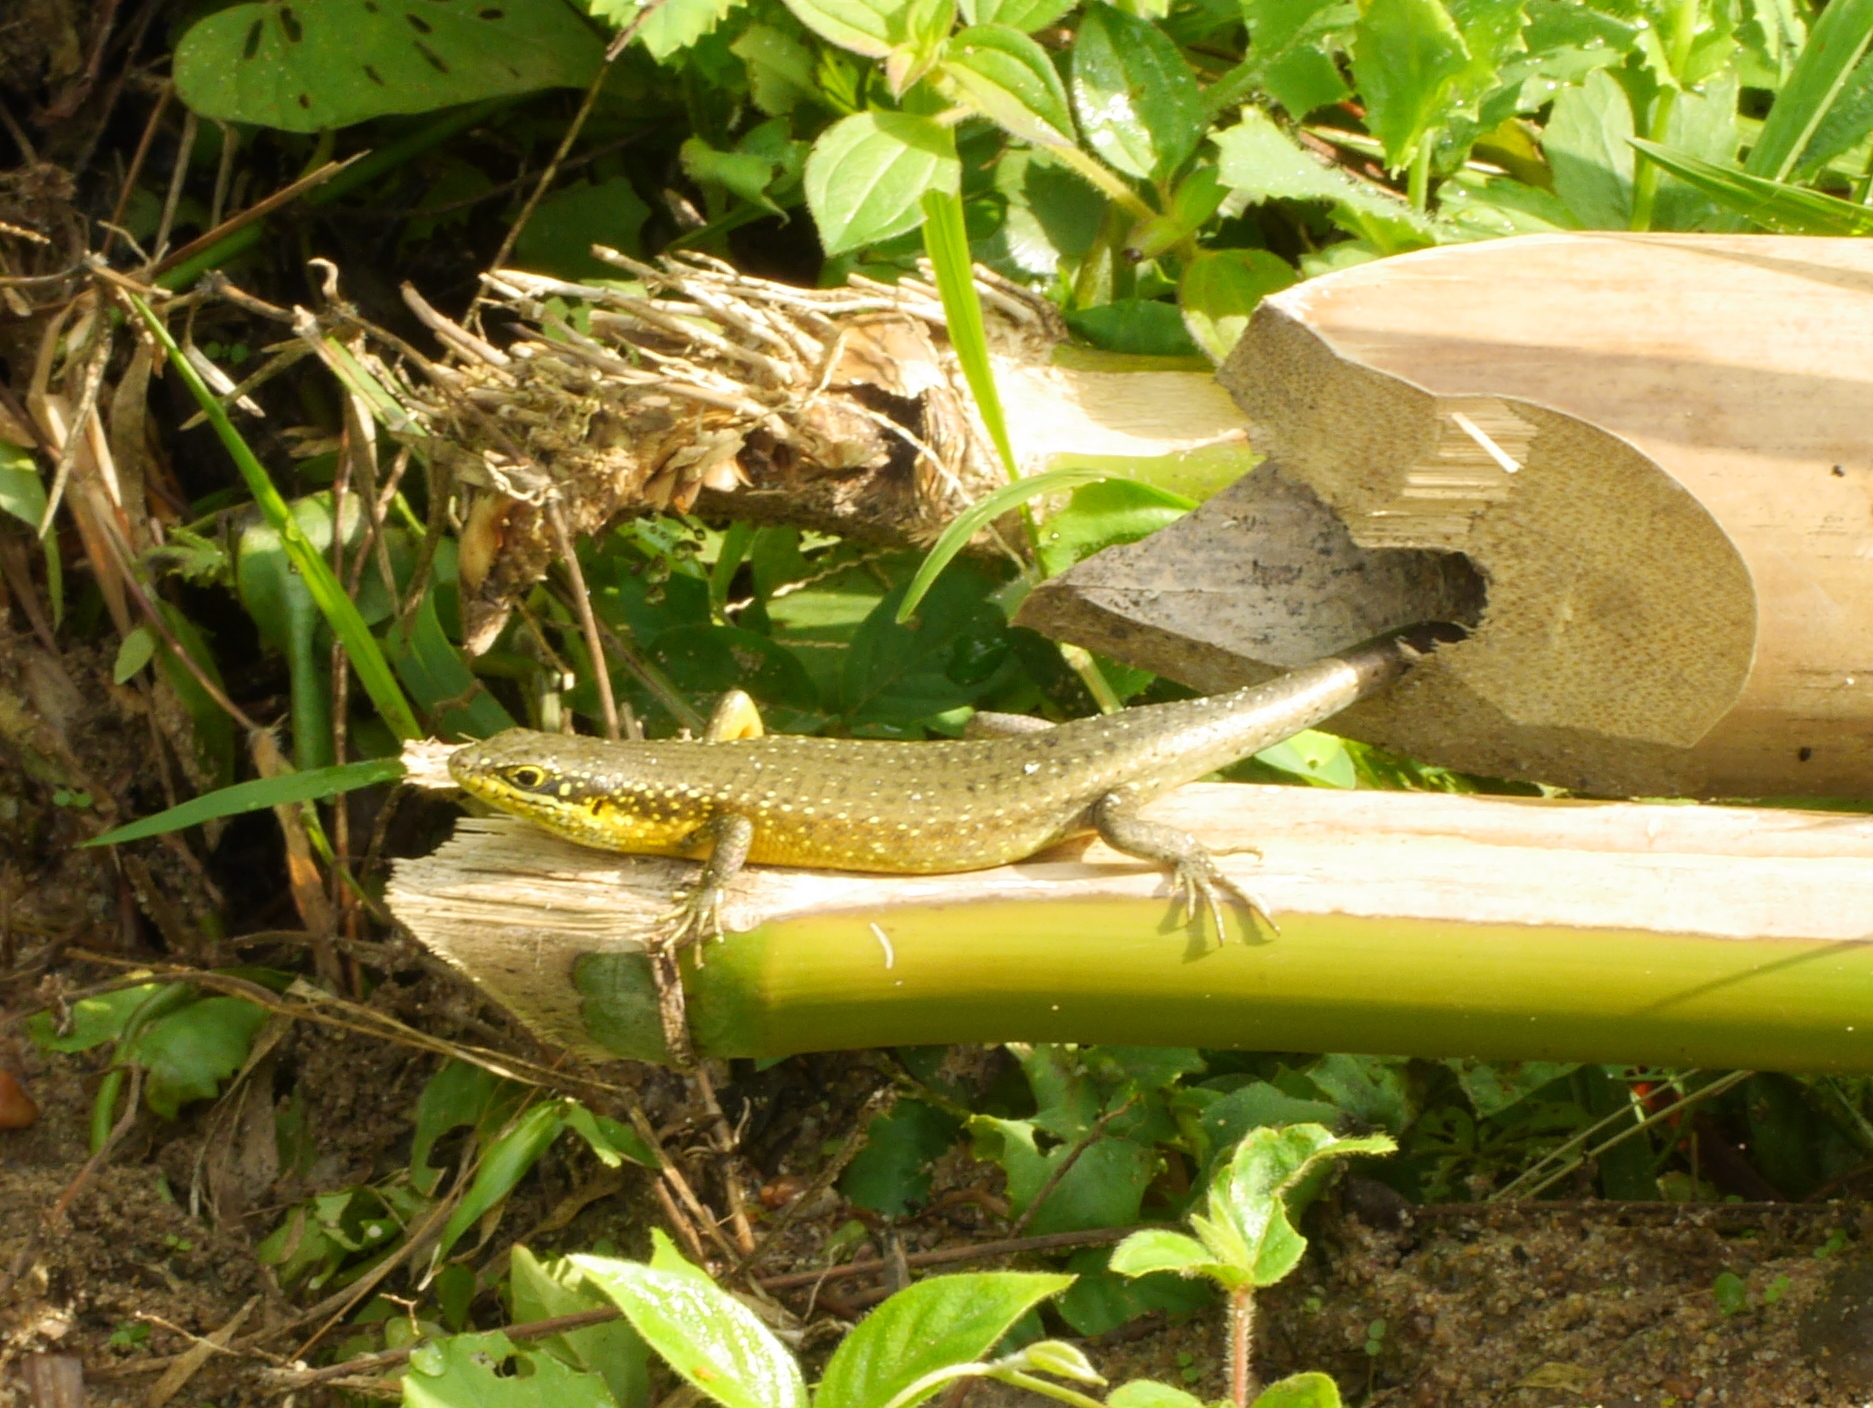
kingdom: Animalia
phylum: Chordata
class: Squamata
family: Scincidae
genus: Trachylepis
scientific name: Trachylepis maculilabris
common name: Speckle-lipped mabuya
